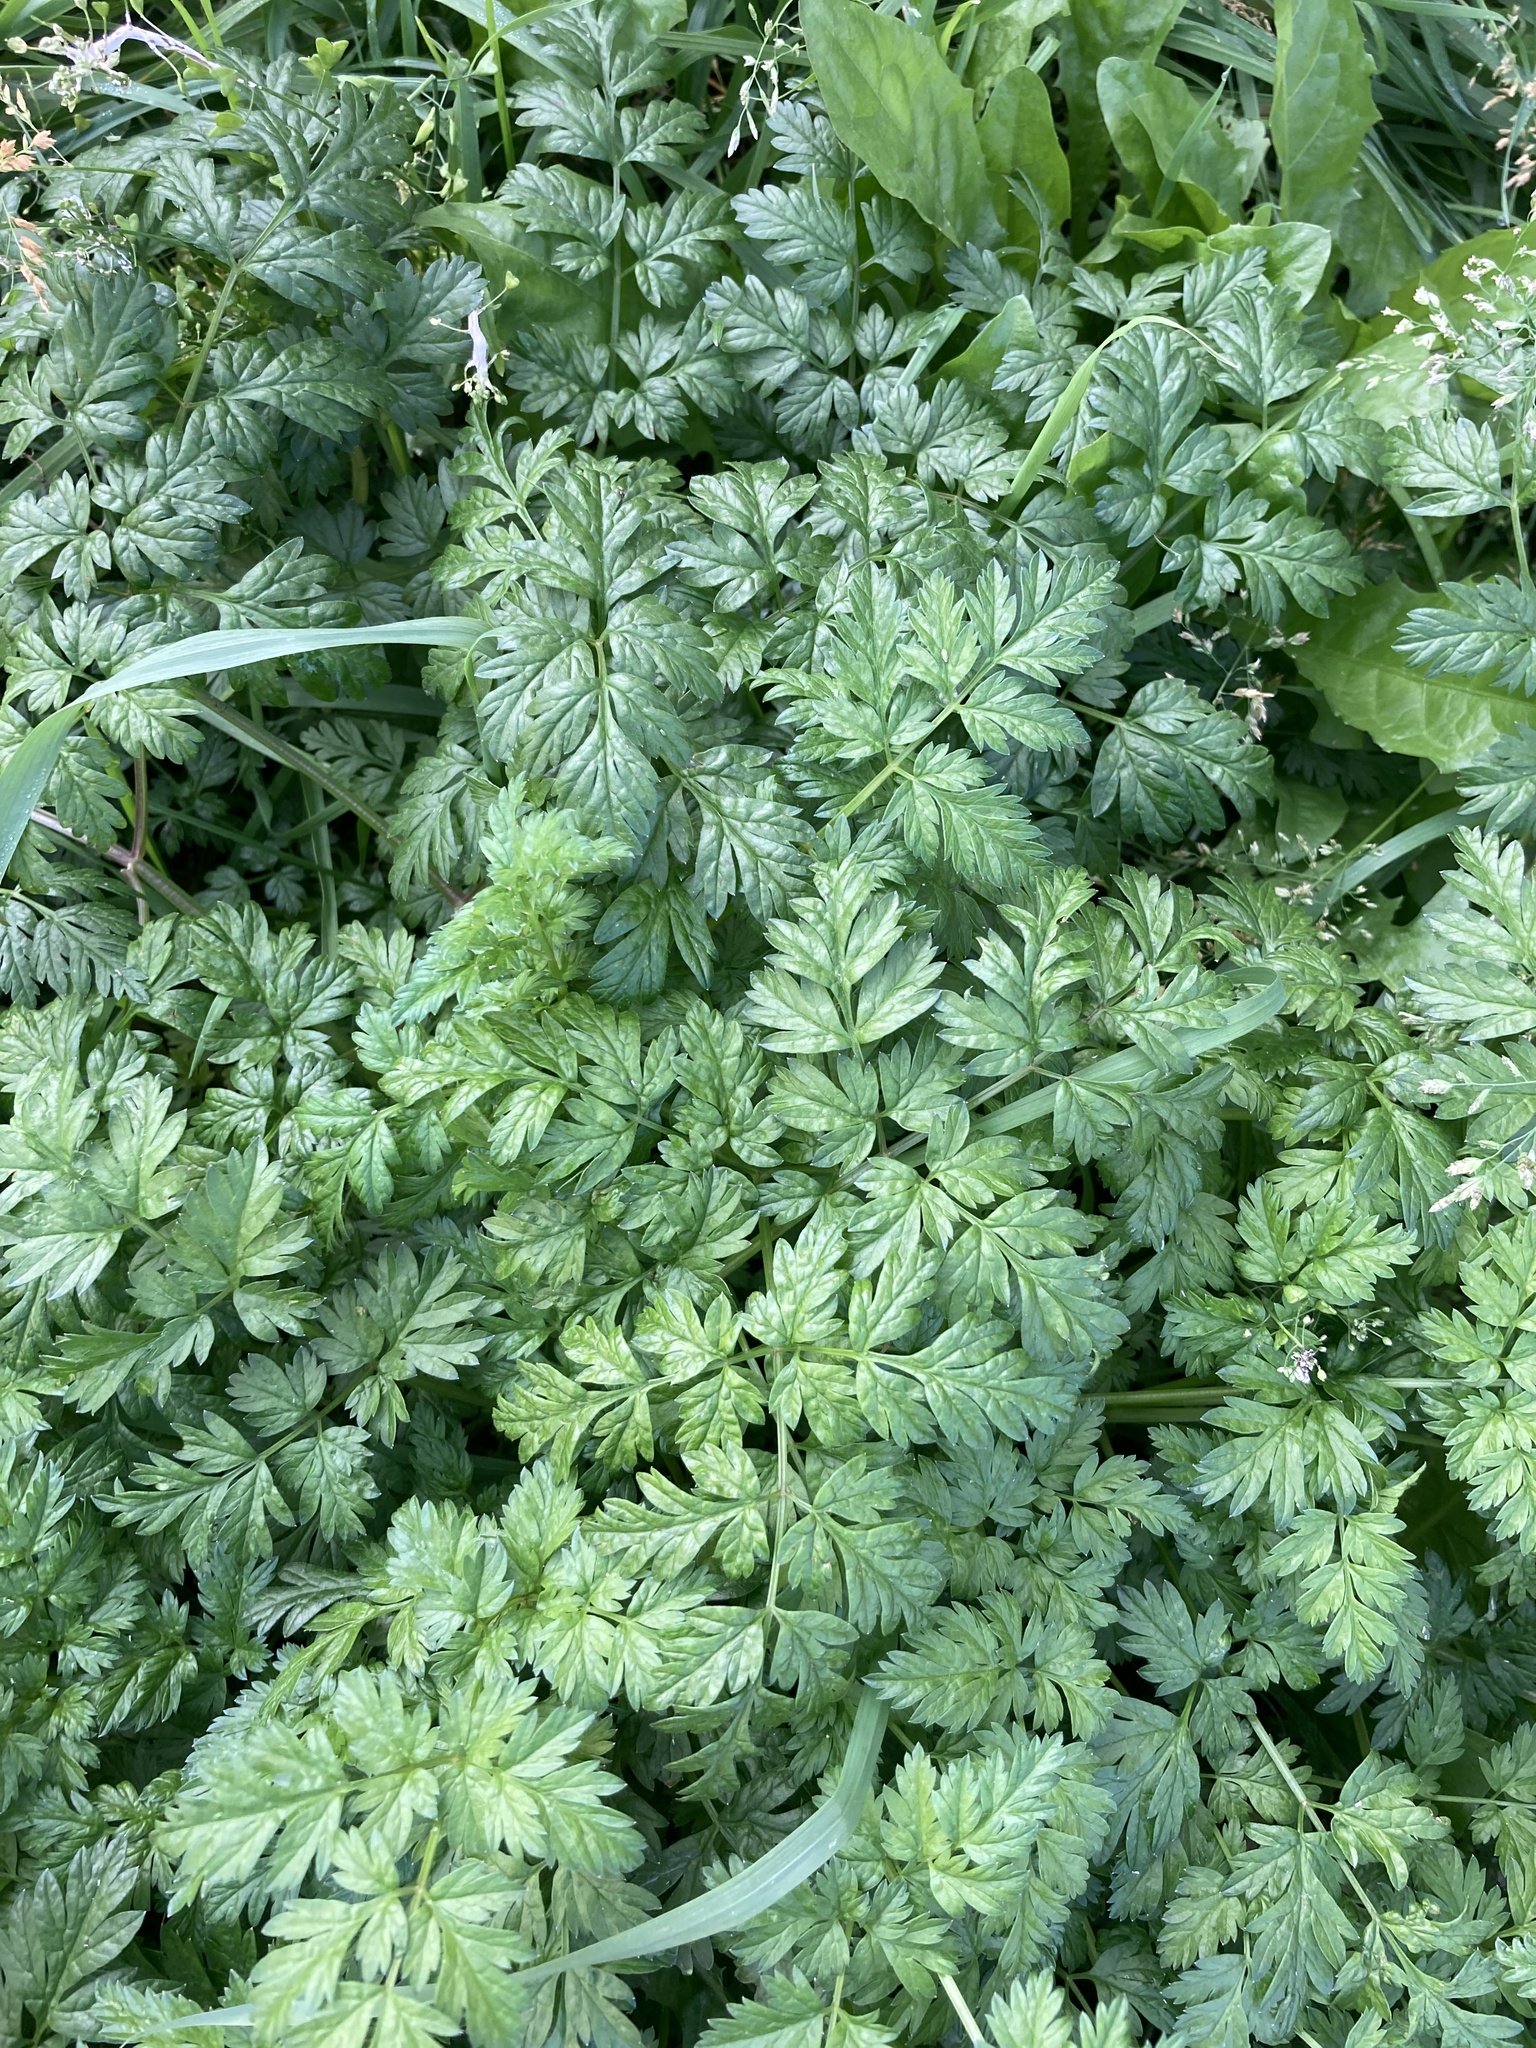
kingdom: Plantae
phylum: Tracheophyta
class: Magnoliopsida
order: Apiales
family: Apiaceae
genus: Anthriscus
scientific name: Anthriscus sylvestris
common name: Cow parsley
